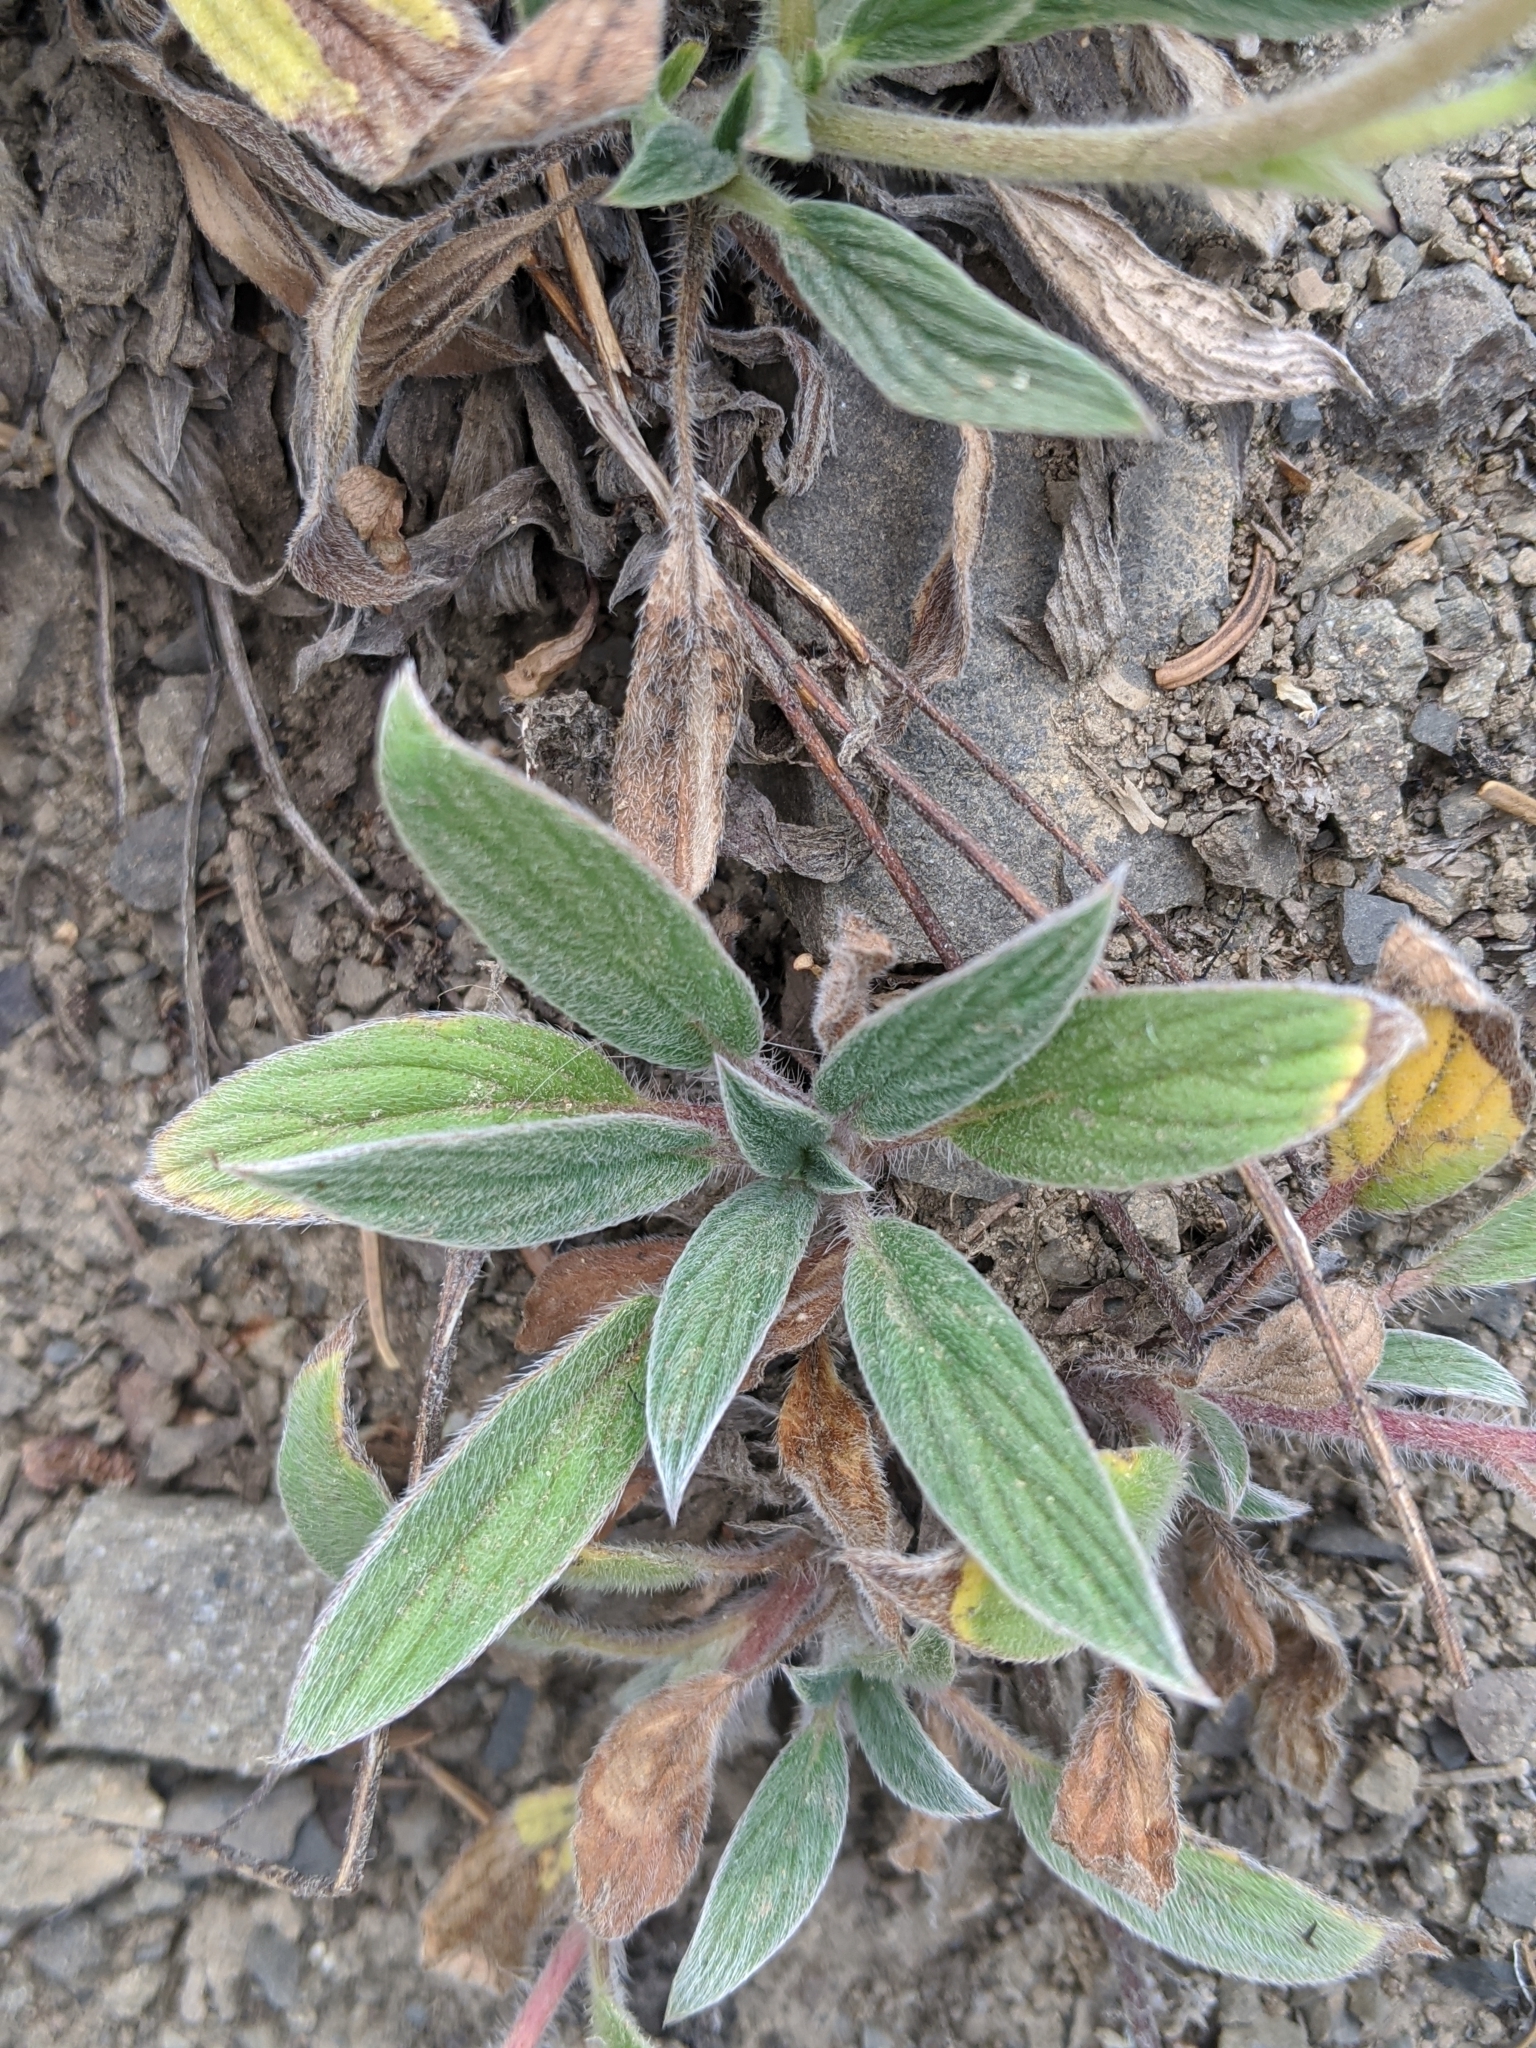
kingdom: Plantae
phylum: Tracheophyta
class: Magnoliopsida
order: Boraginales
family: Hydrophyllaceae
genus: Phacelia
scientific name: Phacelia hastata
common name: Silver-leaved phacelia
